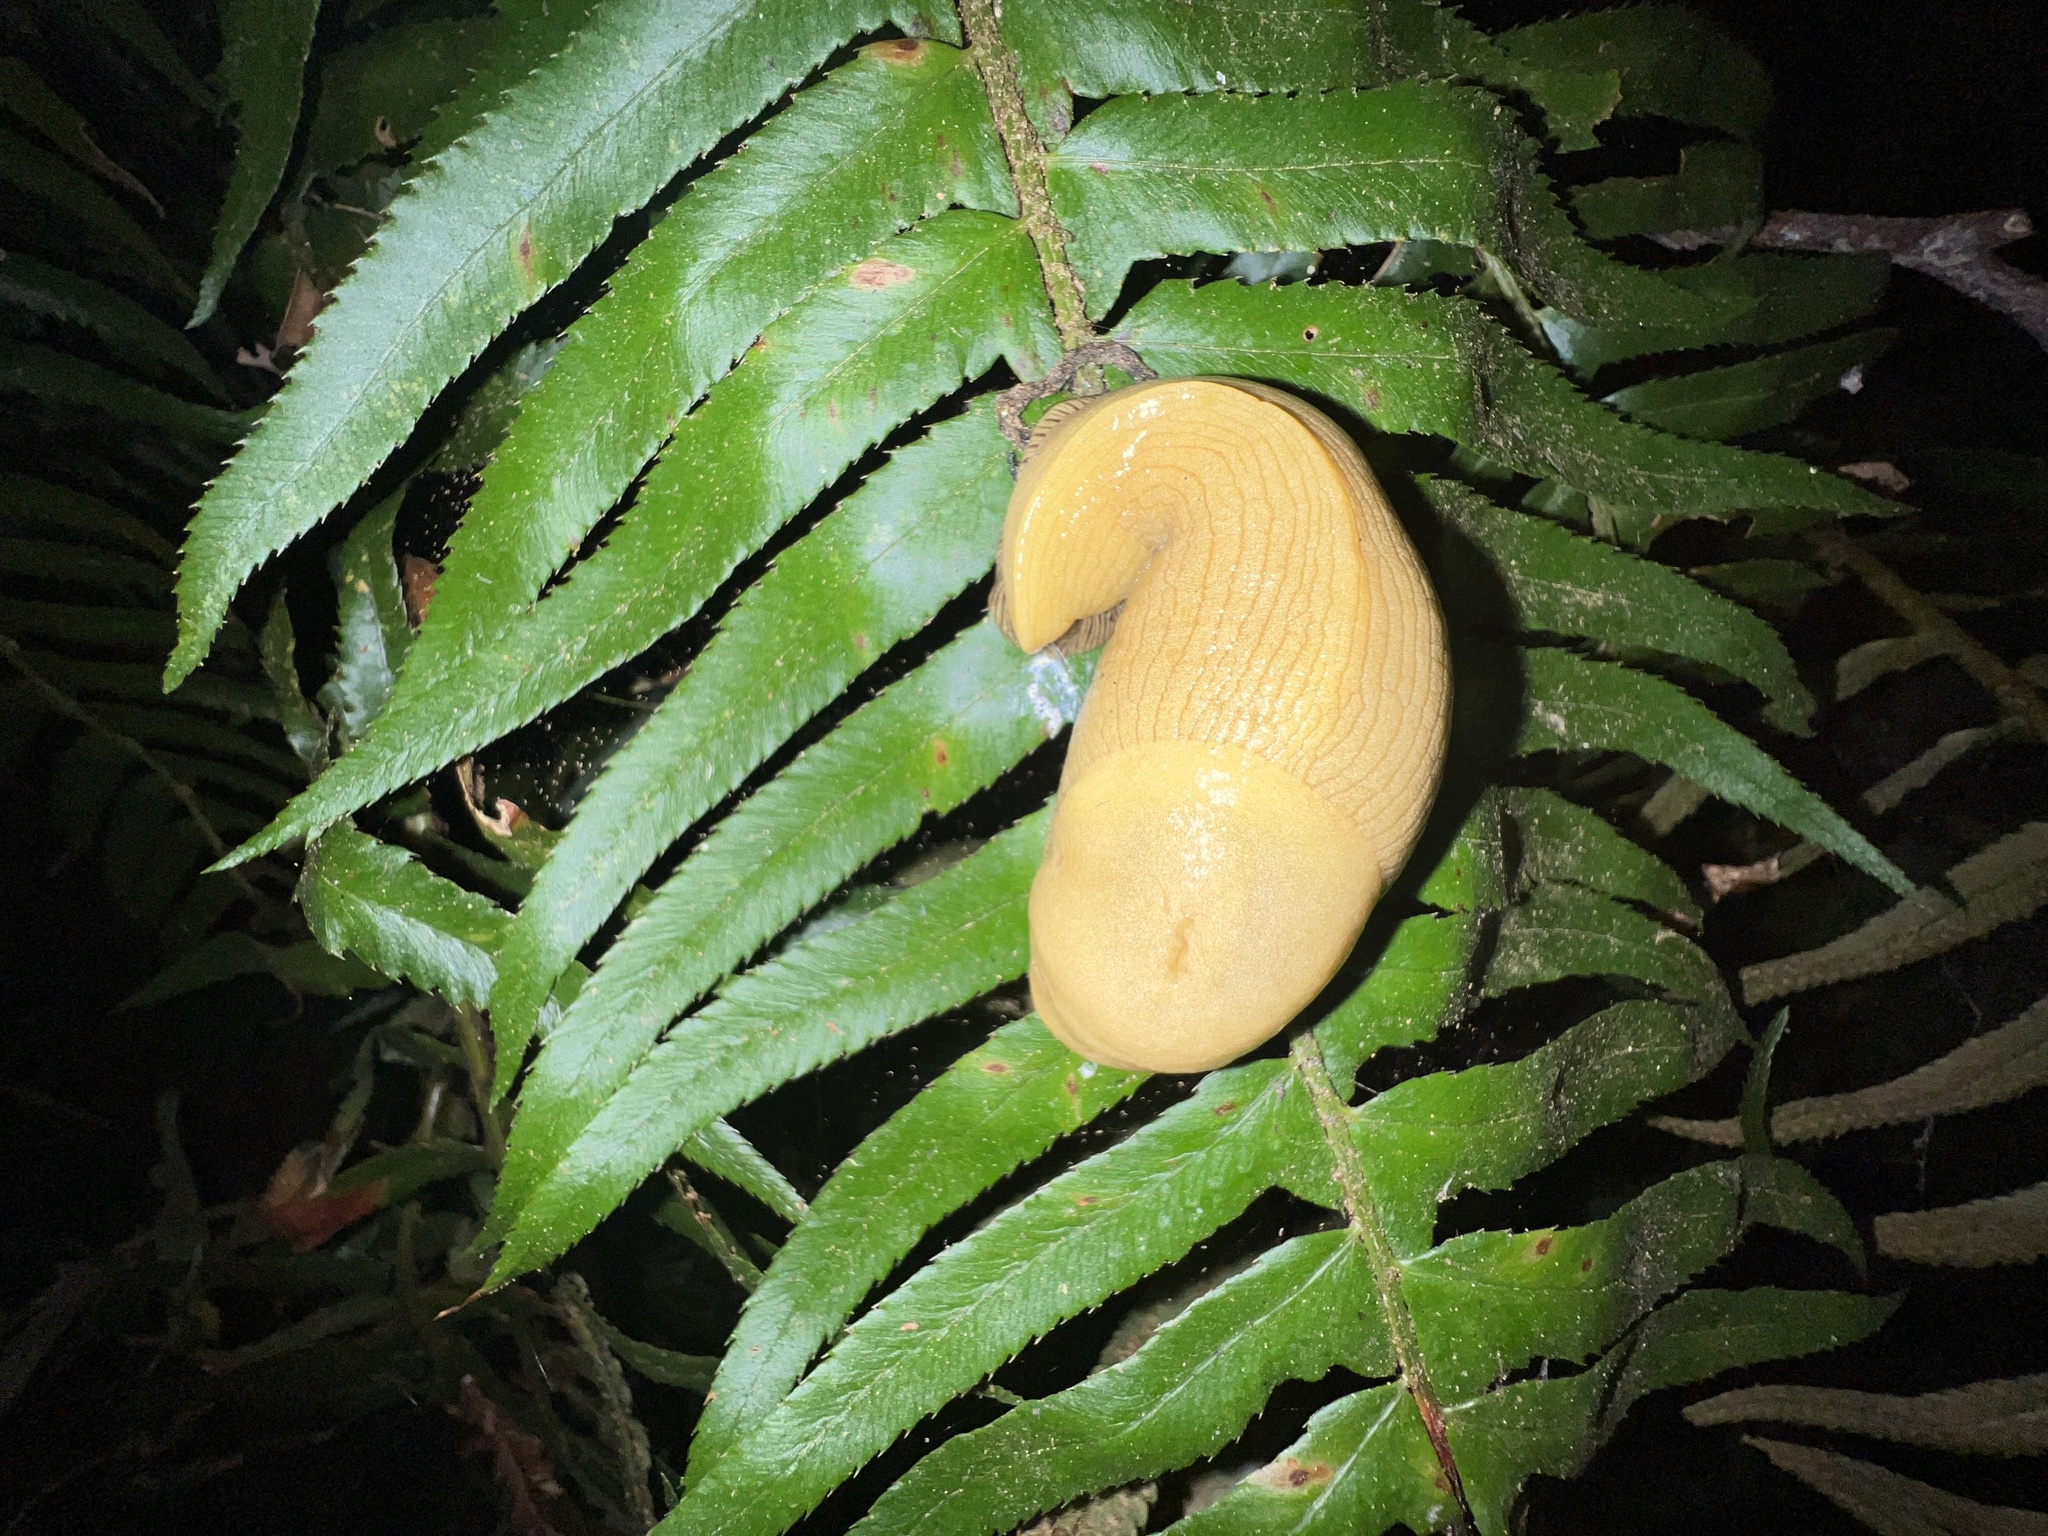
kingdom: Animalia
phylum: Mollusca
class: Gastropoda
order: Stylommatophora
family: Ariolimacidae
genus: Ariolimax
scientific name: Ariolimax columbianus
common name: Pacific banana slug
